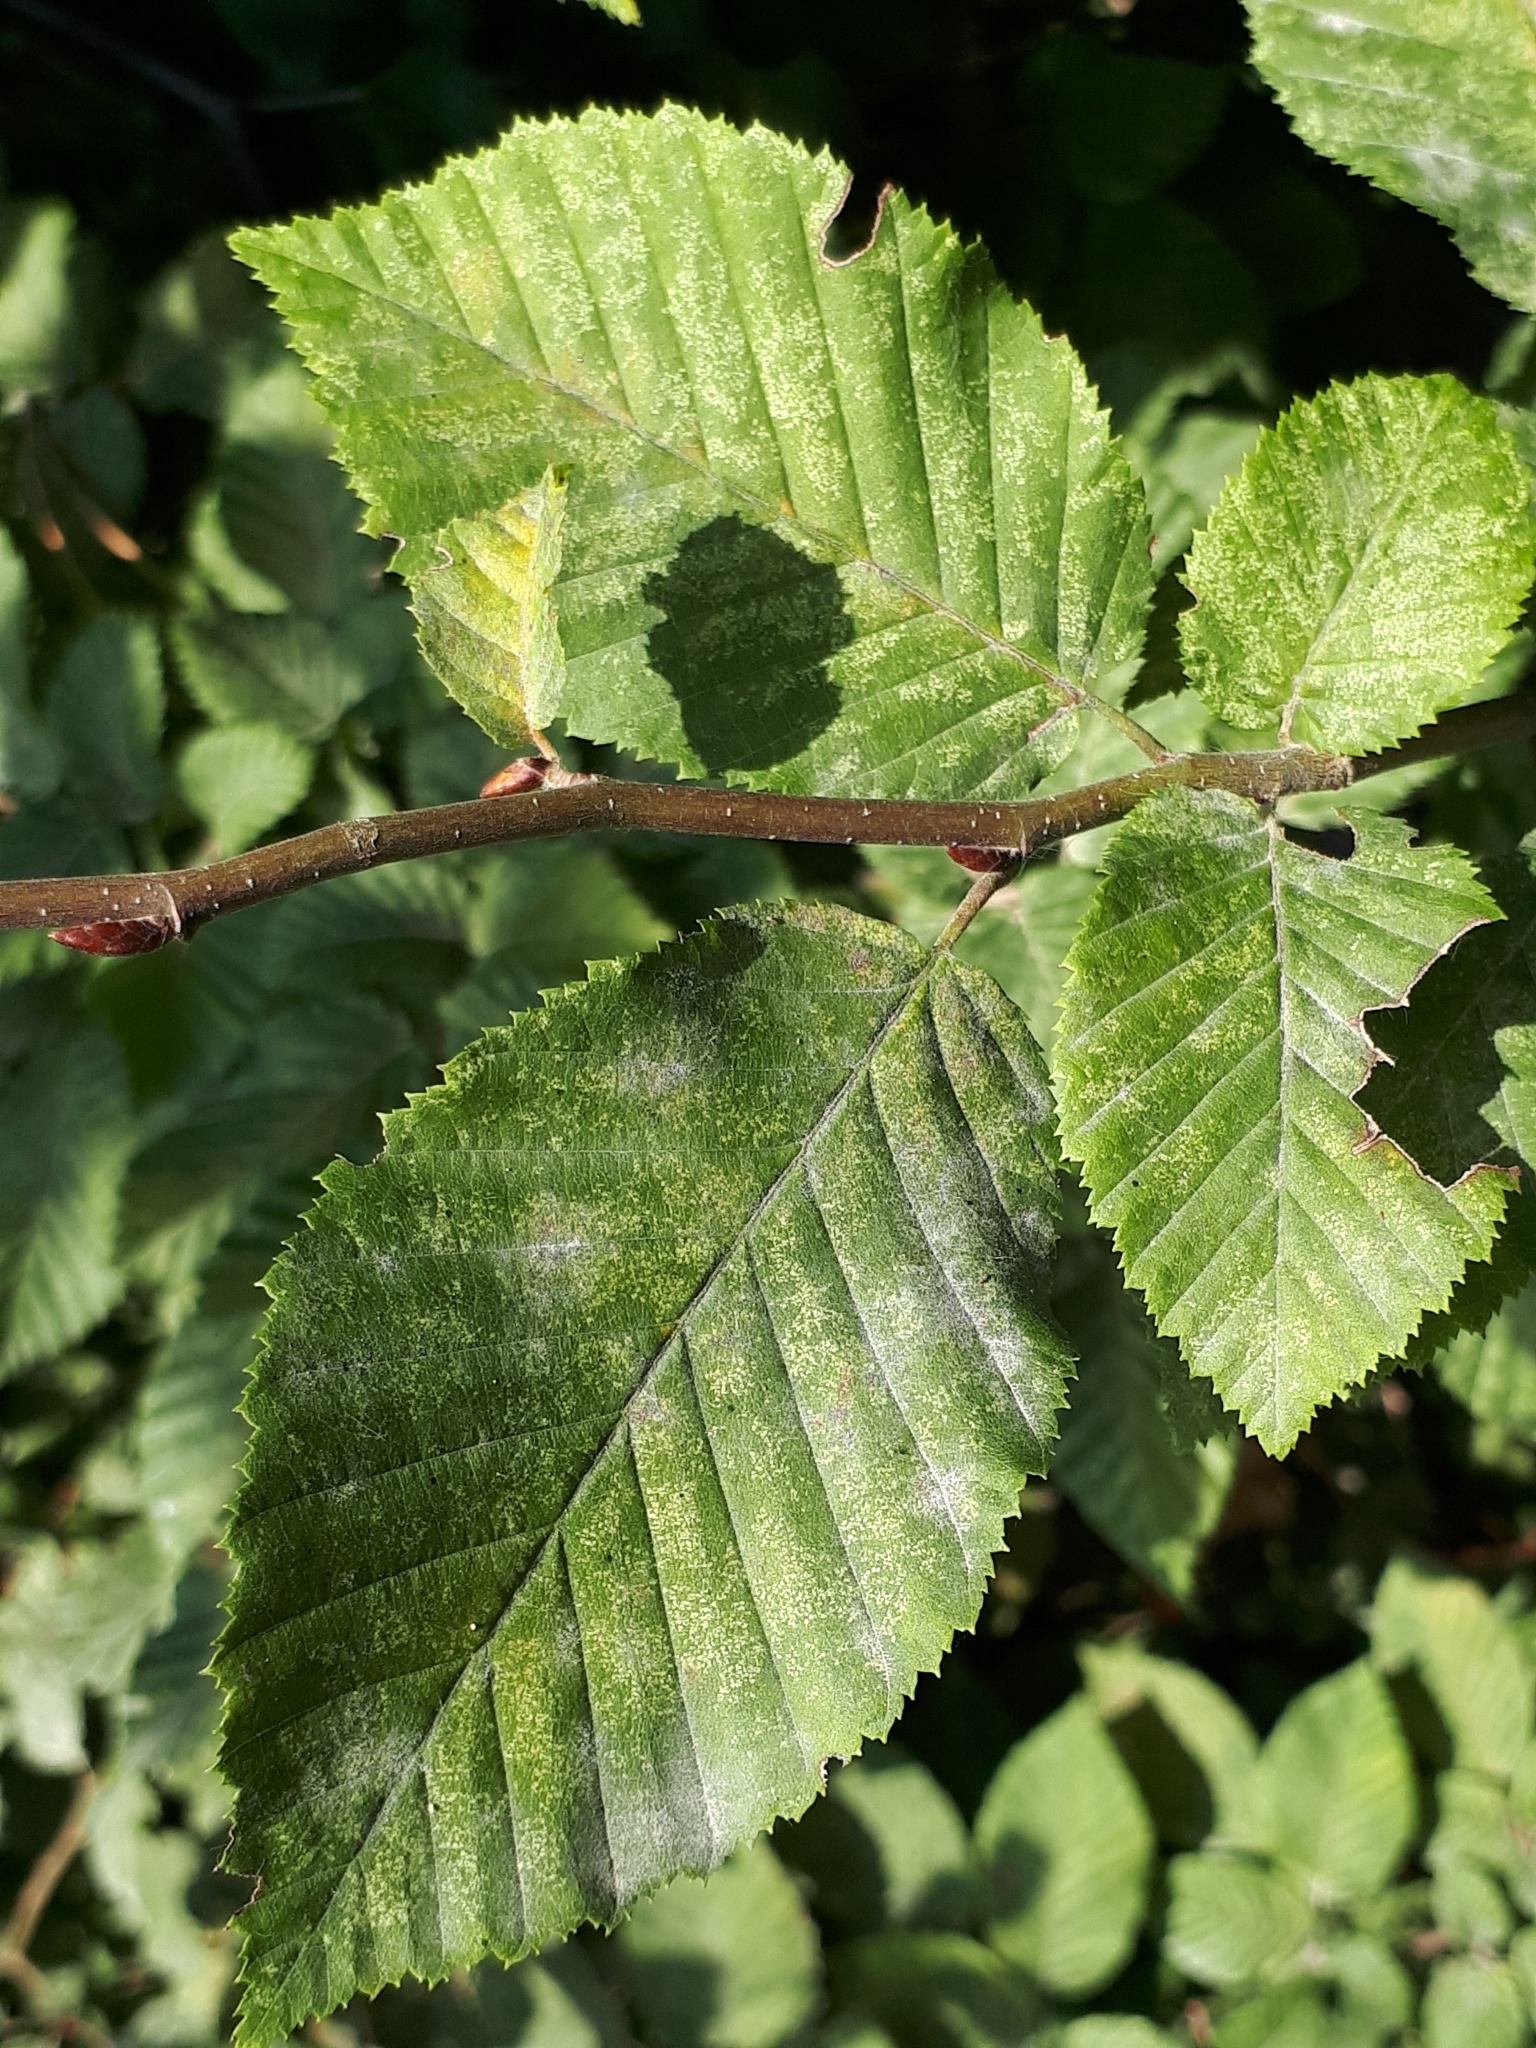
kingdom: Plantae
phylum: Tracheophyta
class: Magnoliopsida
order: Fagales
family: Betulaceae
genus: Carpinus
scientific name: Carpinus betulus
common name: Hornbeam
